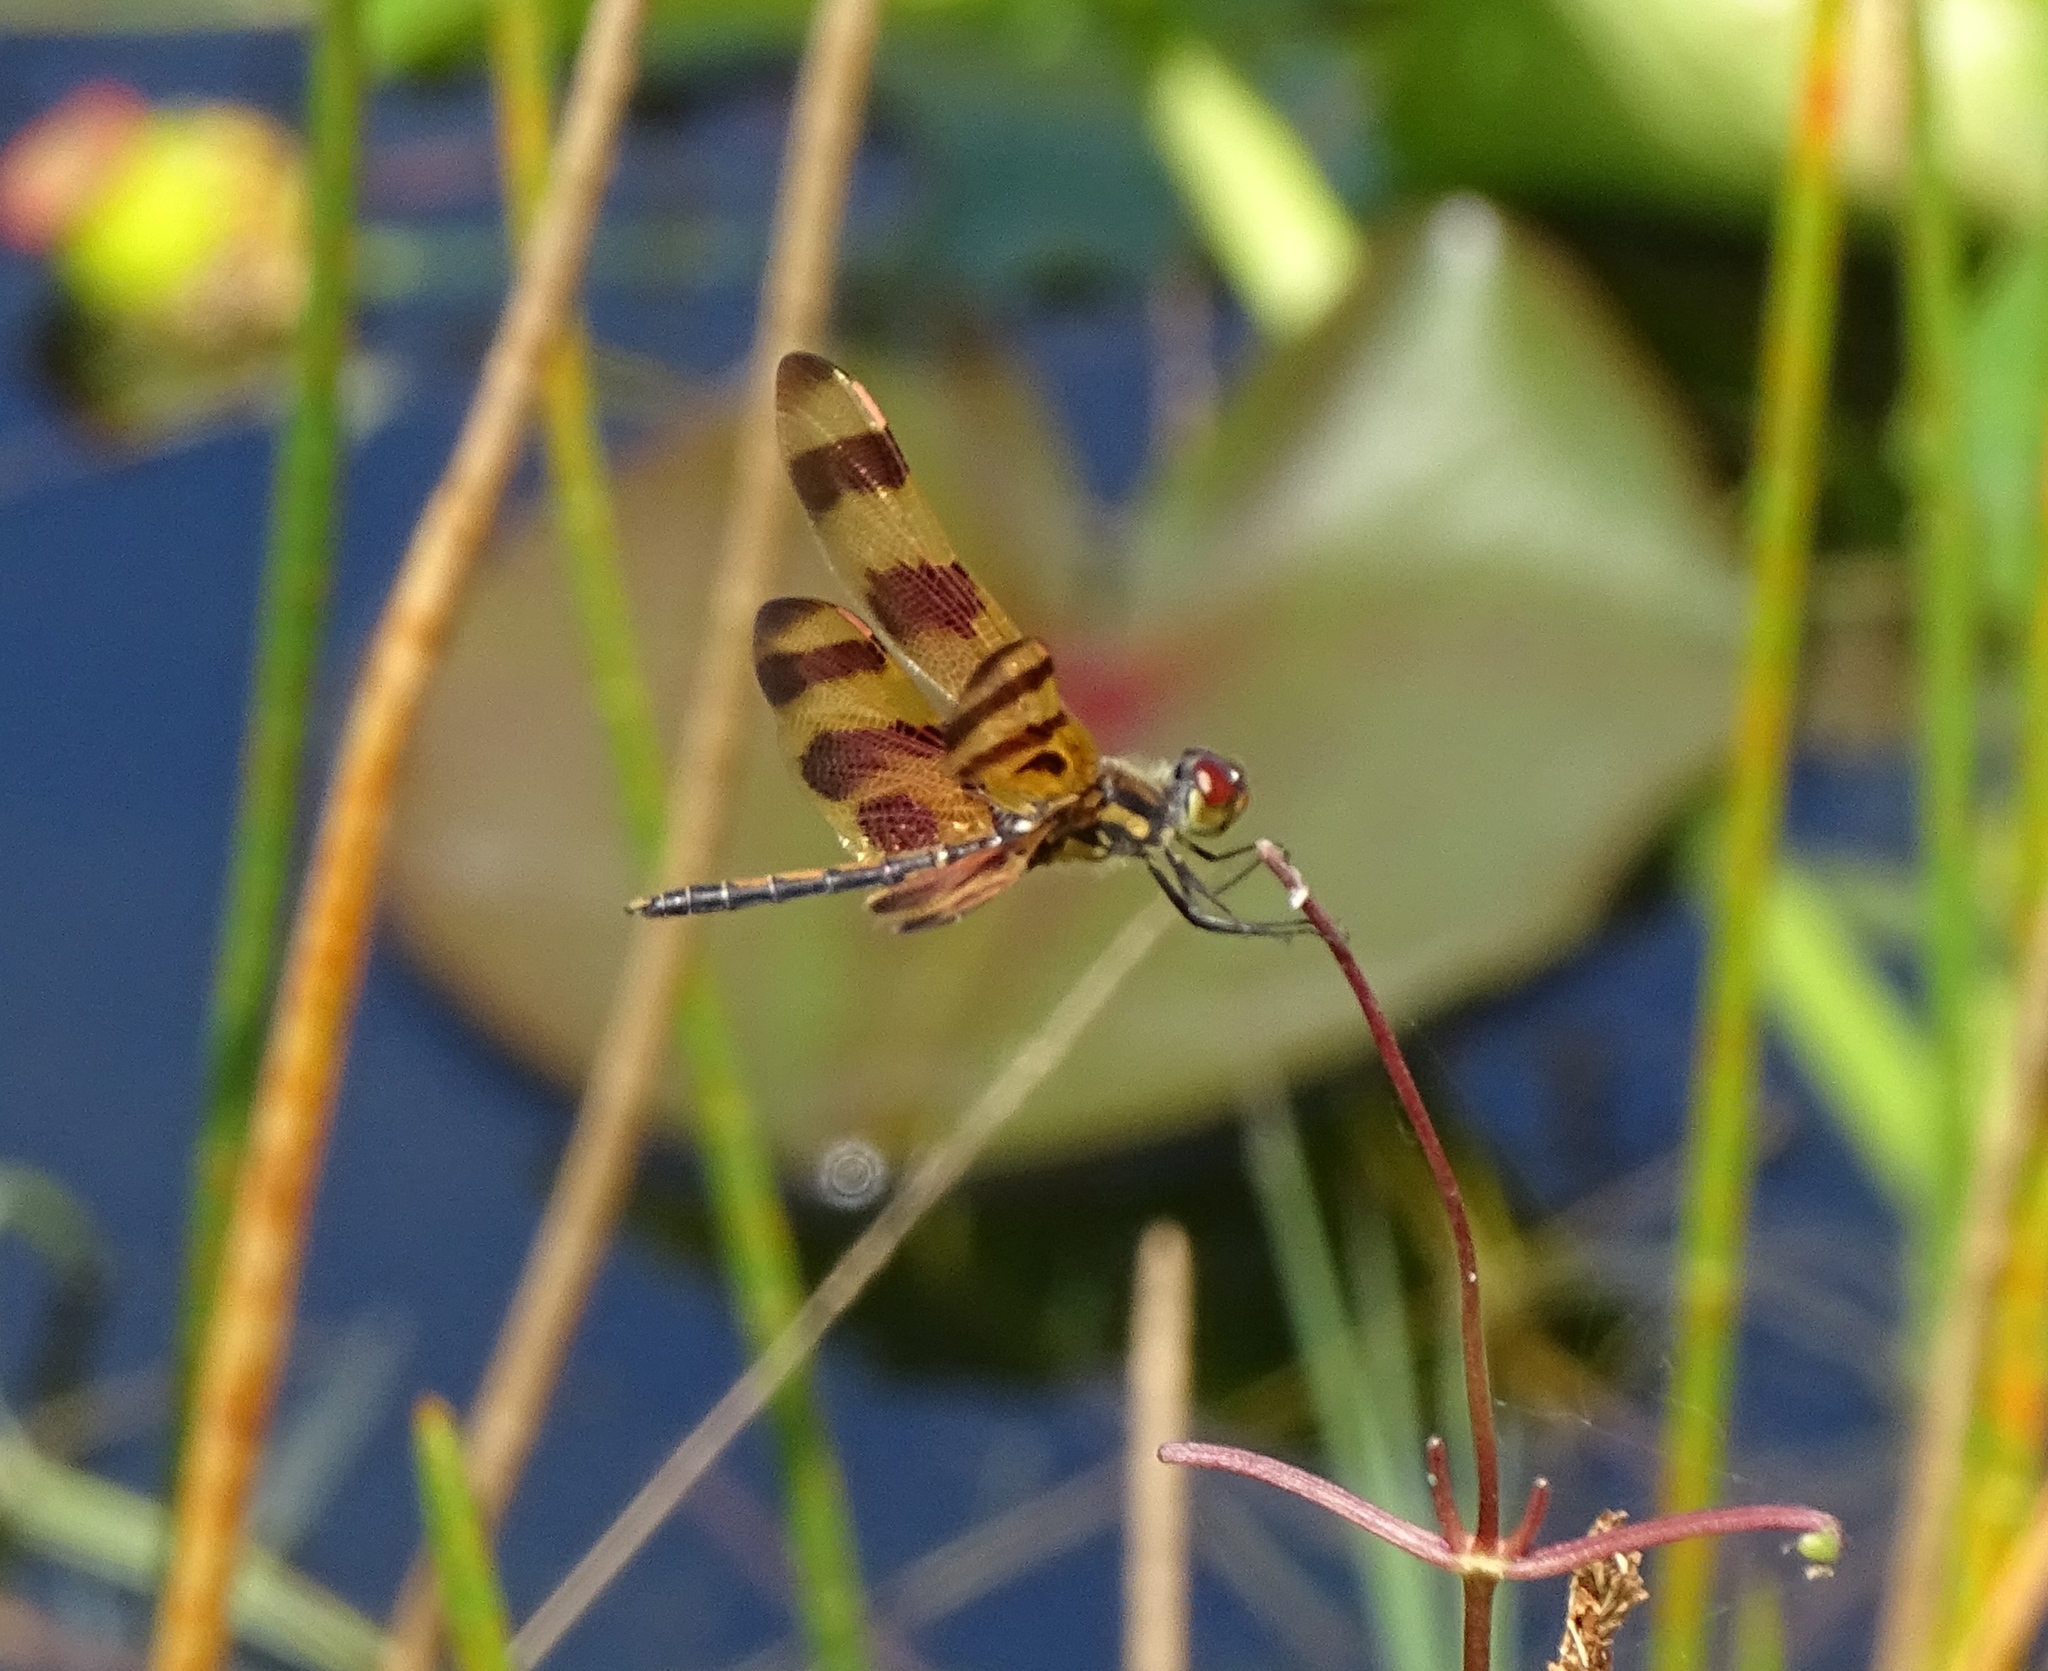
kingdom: Animalia
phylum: Arthropoda
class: Insecta
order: Odonata
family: Libellulidae
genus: Celithemis
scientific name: Celithemis eponina
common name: Halloween pennant
